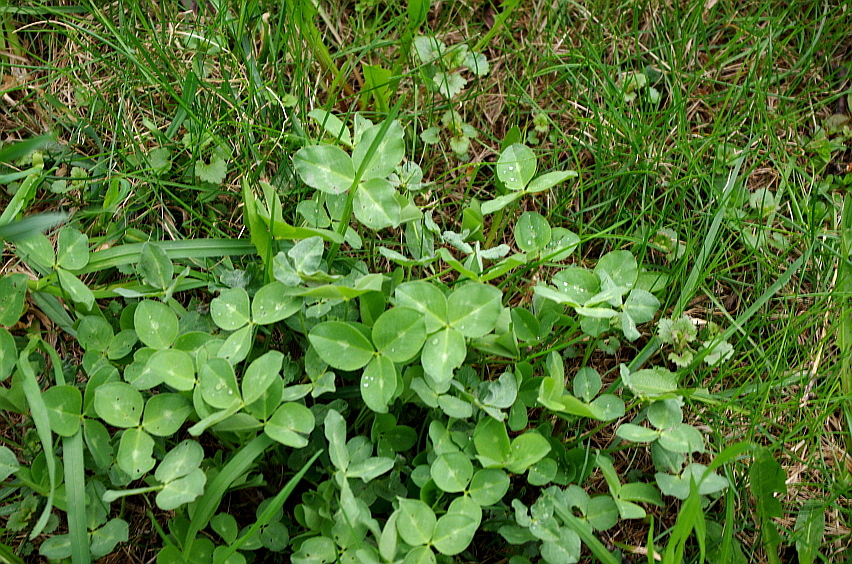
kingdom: Plantae
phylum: Tracheophyta
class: Magnoliopsida
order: Fabales
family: Fabaceae
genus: Trifolium
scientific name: Trifolium pratense
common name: Red clover
